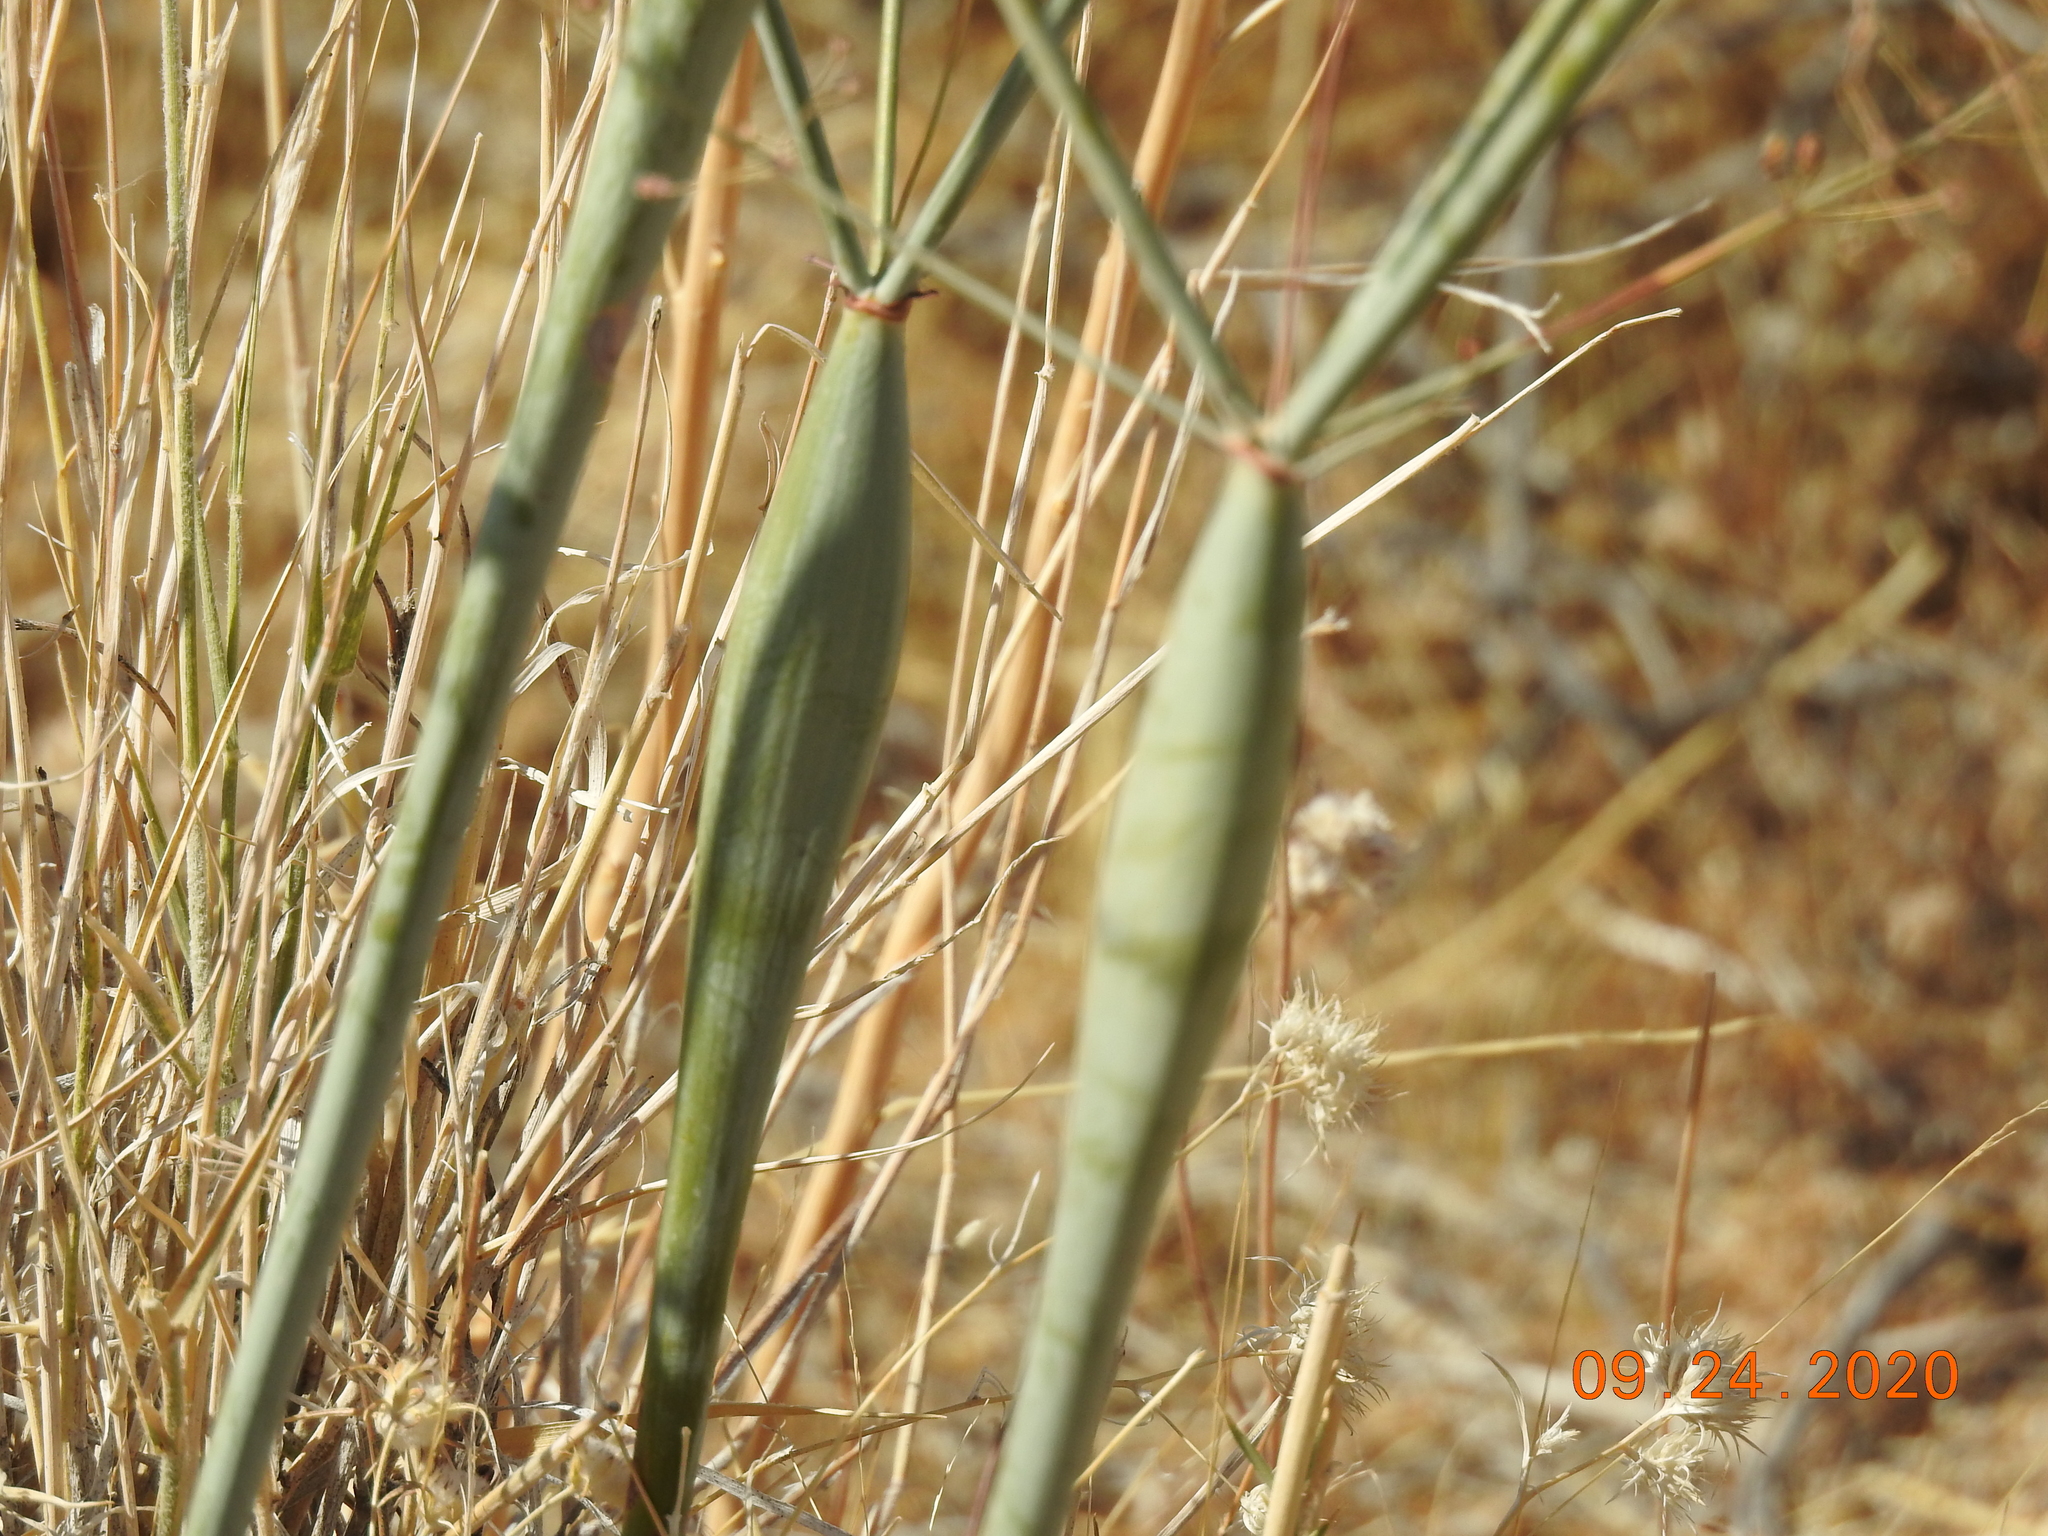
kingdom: Plantae
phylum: Tracheophyta
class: Magnoliopsida
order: Caryophyllales
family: Polygonaceae
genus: Eriogonum
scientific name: Eriogonum inflatum
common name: Desert trumpet
